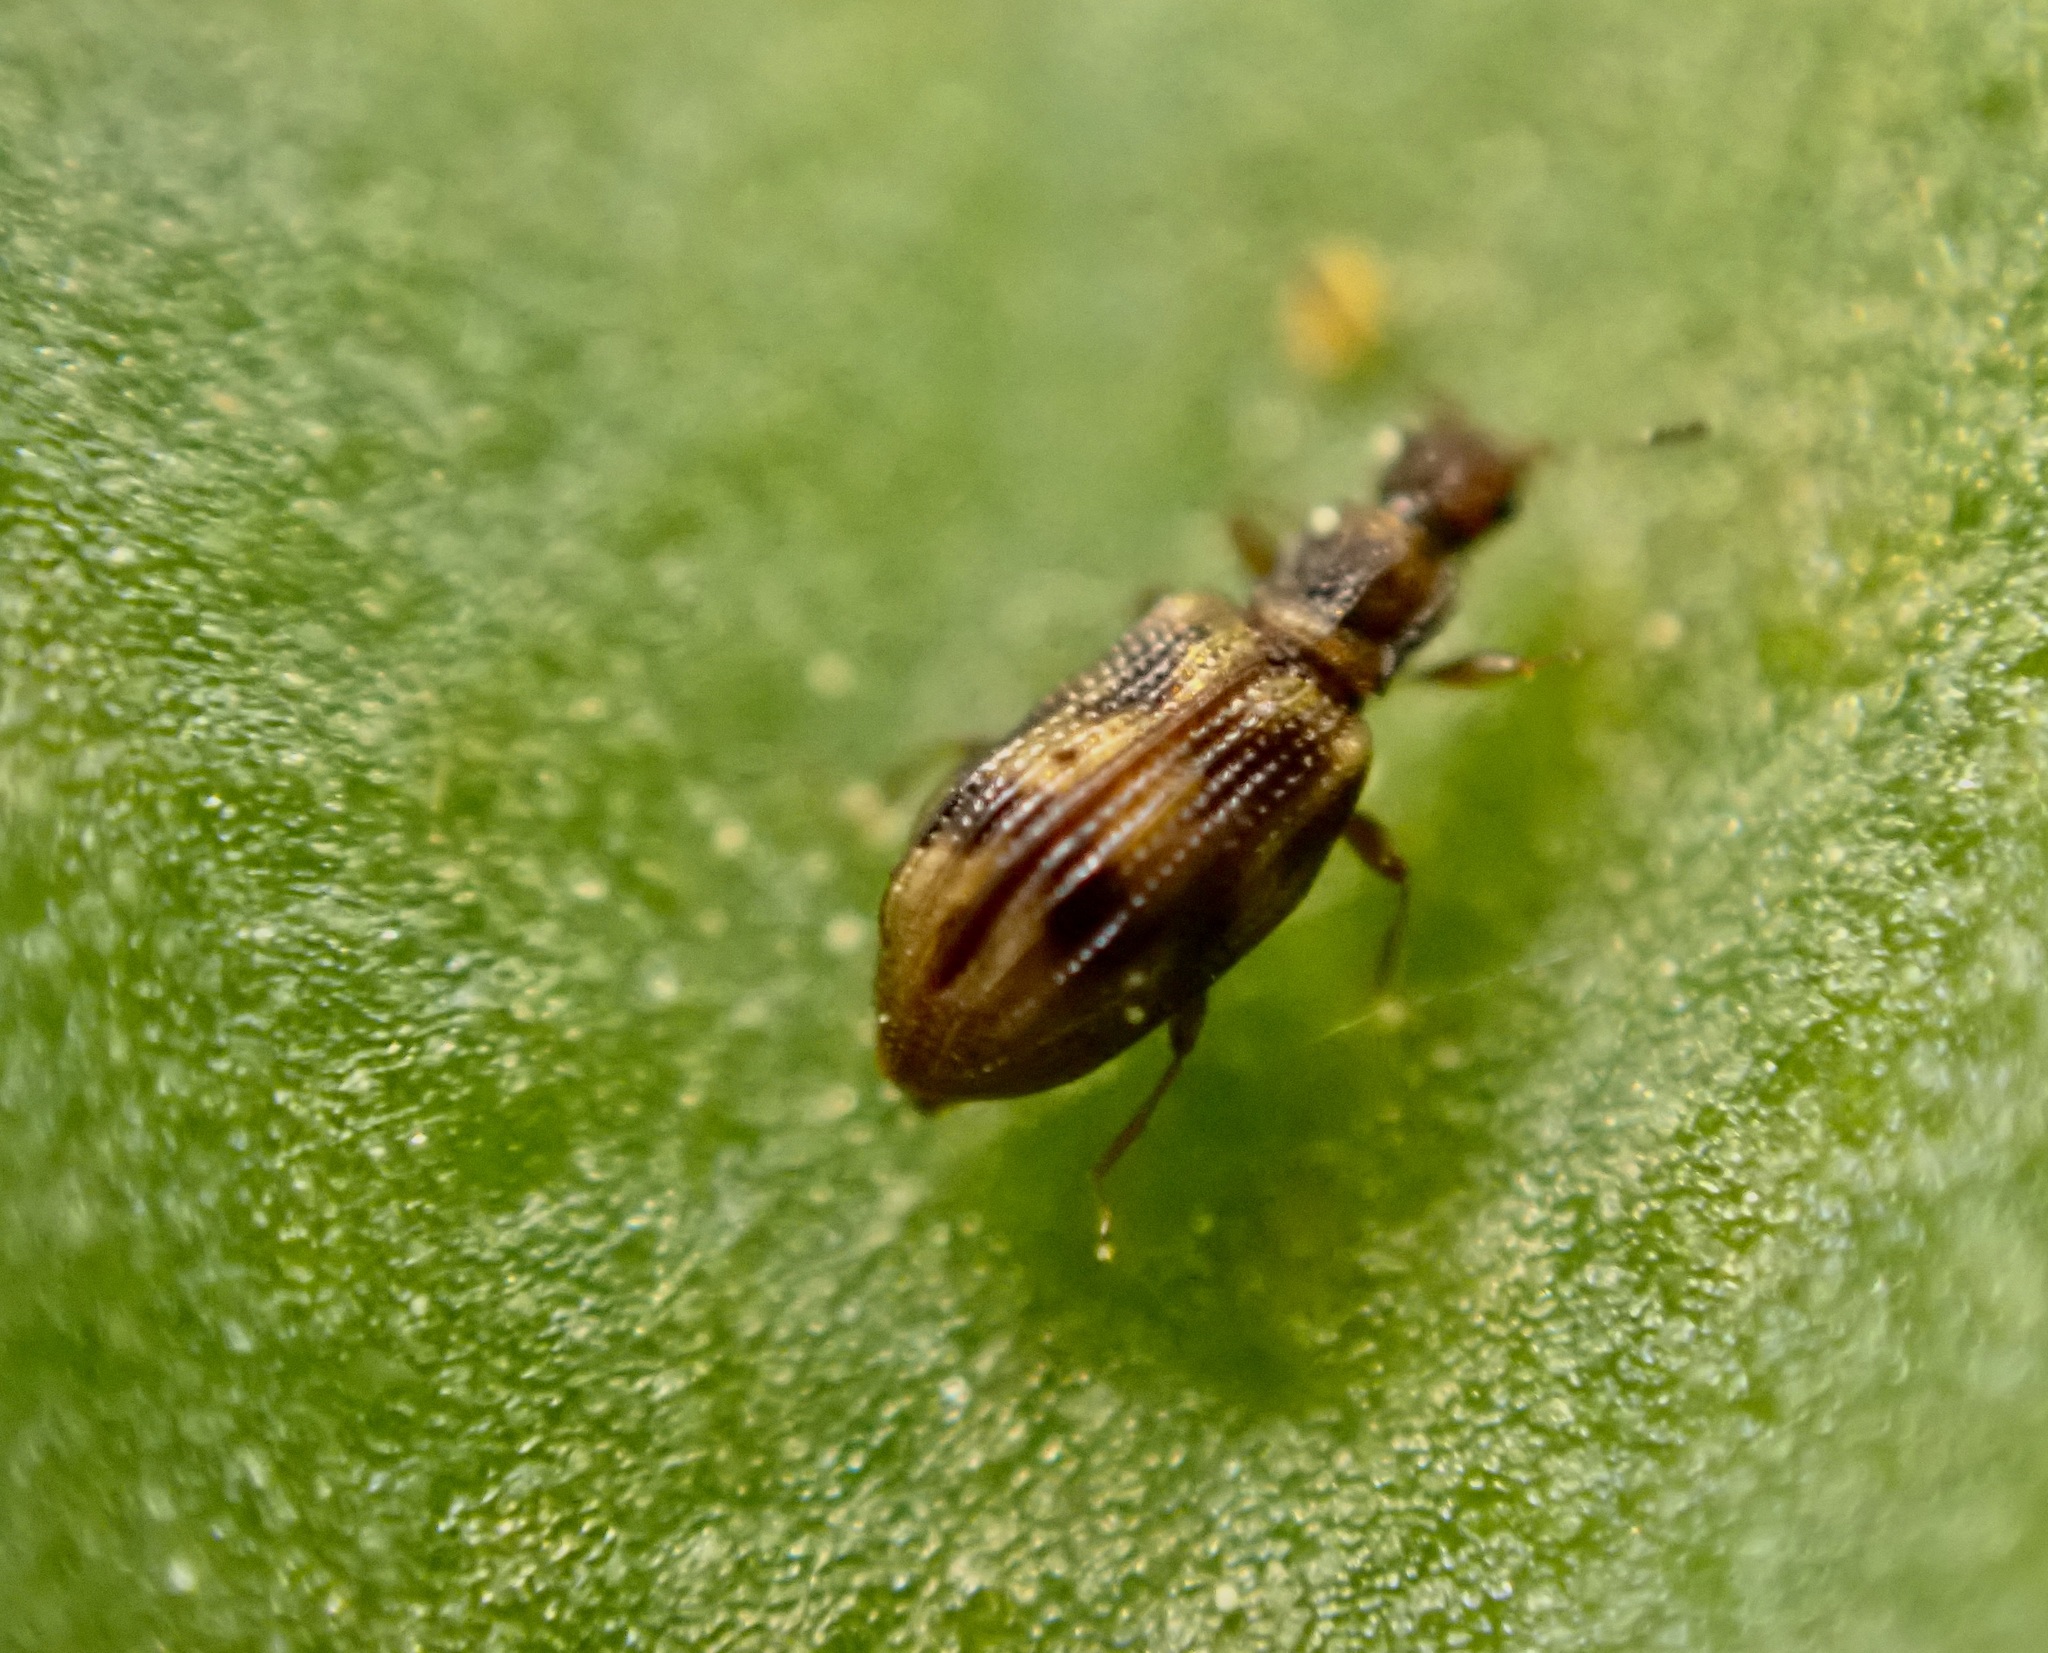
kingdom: Animalia
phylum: Arthropoda
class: Insecta
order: Coleoptera
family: Latridiidae
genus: Cartodere
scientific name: Cartodere bifasciata
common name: Plaster beetle
